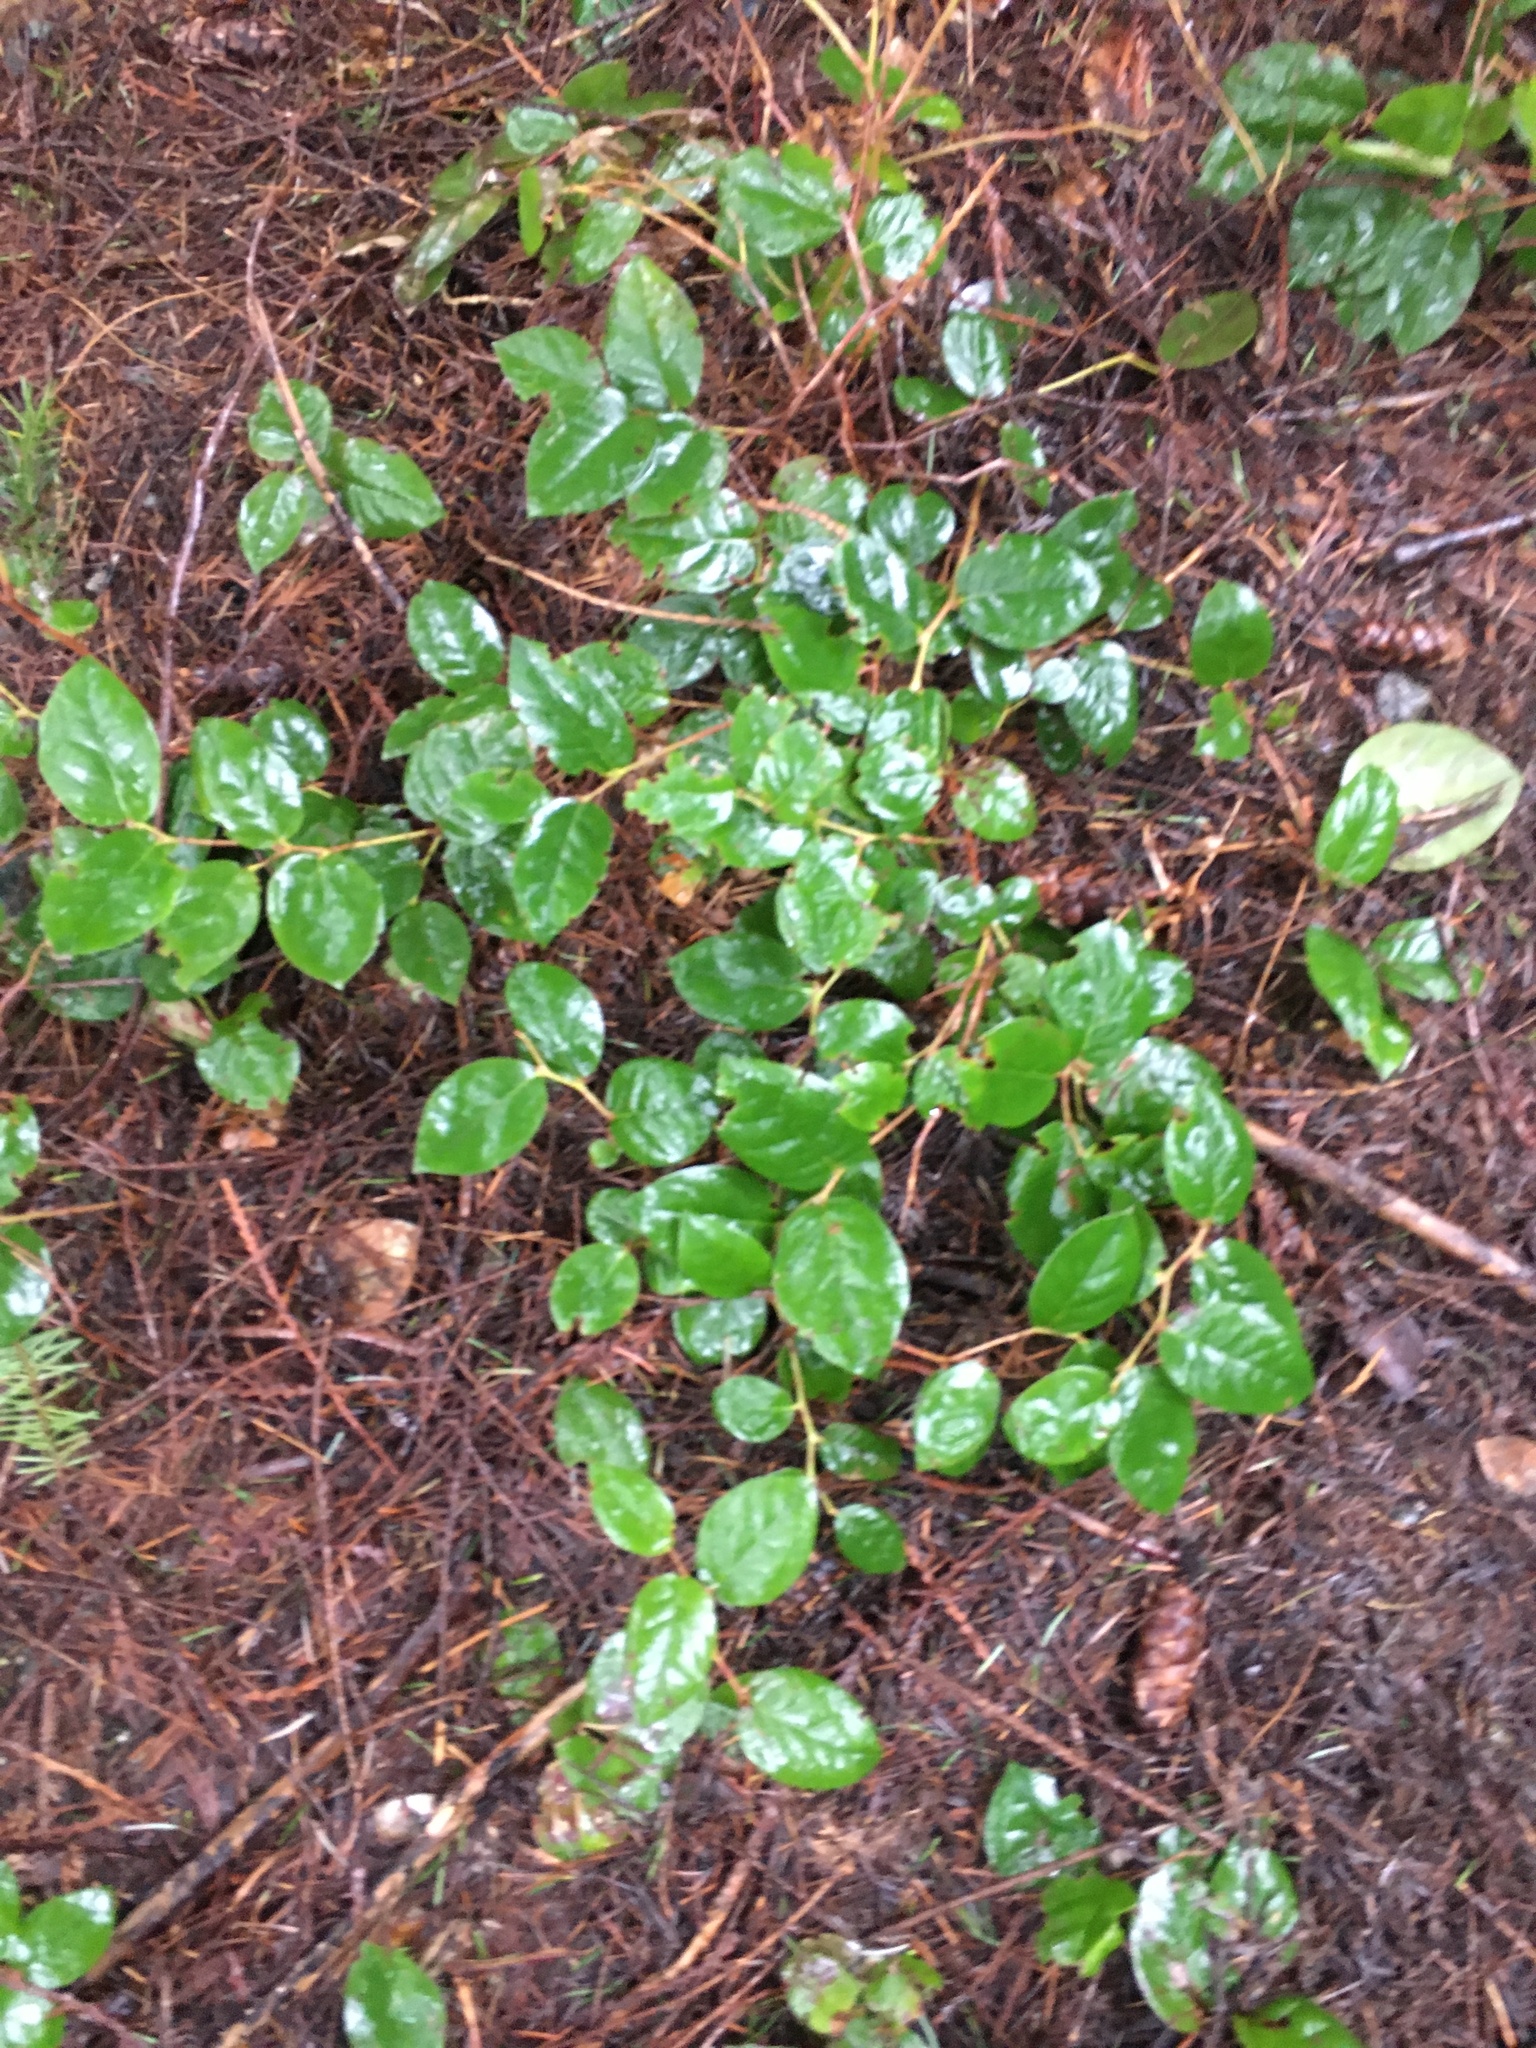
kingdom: Plantae
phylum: Tracheophyta
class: Magnoliopsida
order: Ericales
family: Ericaceae
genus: Gaultheria
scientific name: Gaultheria shallon
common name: Shallon
